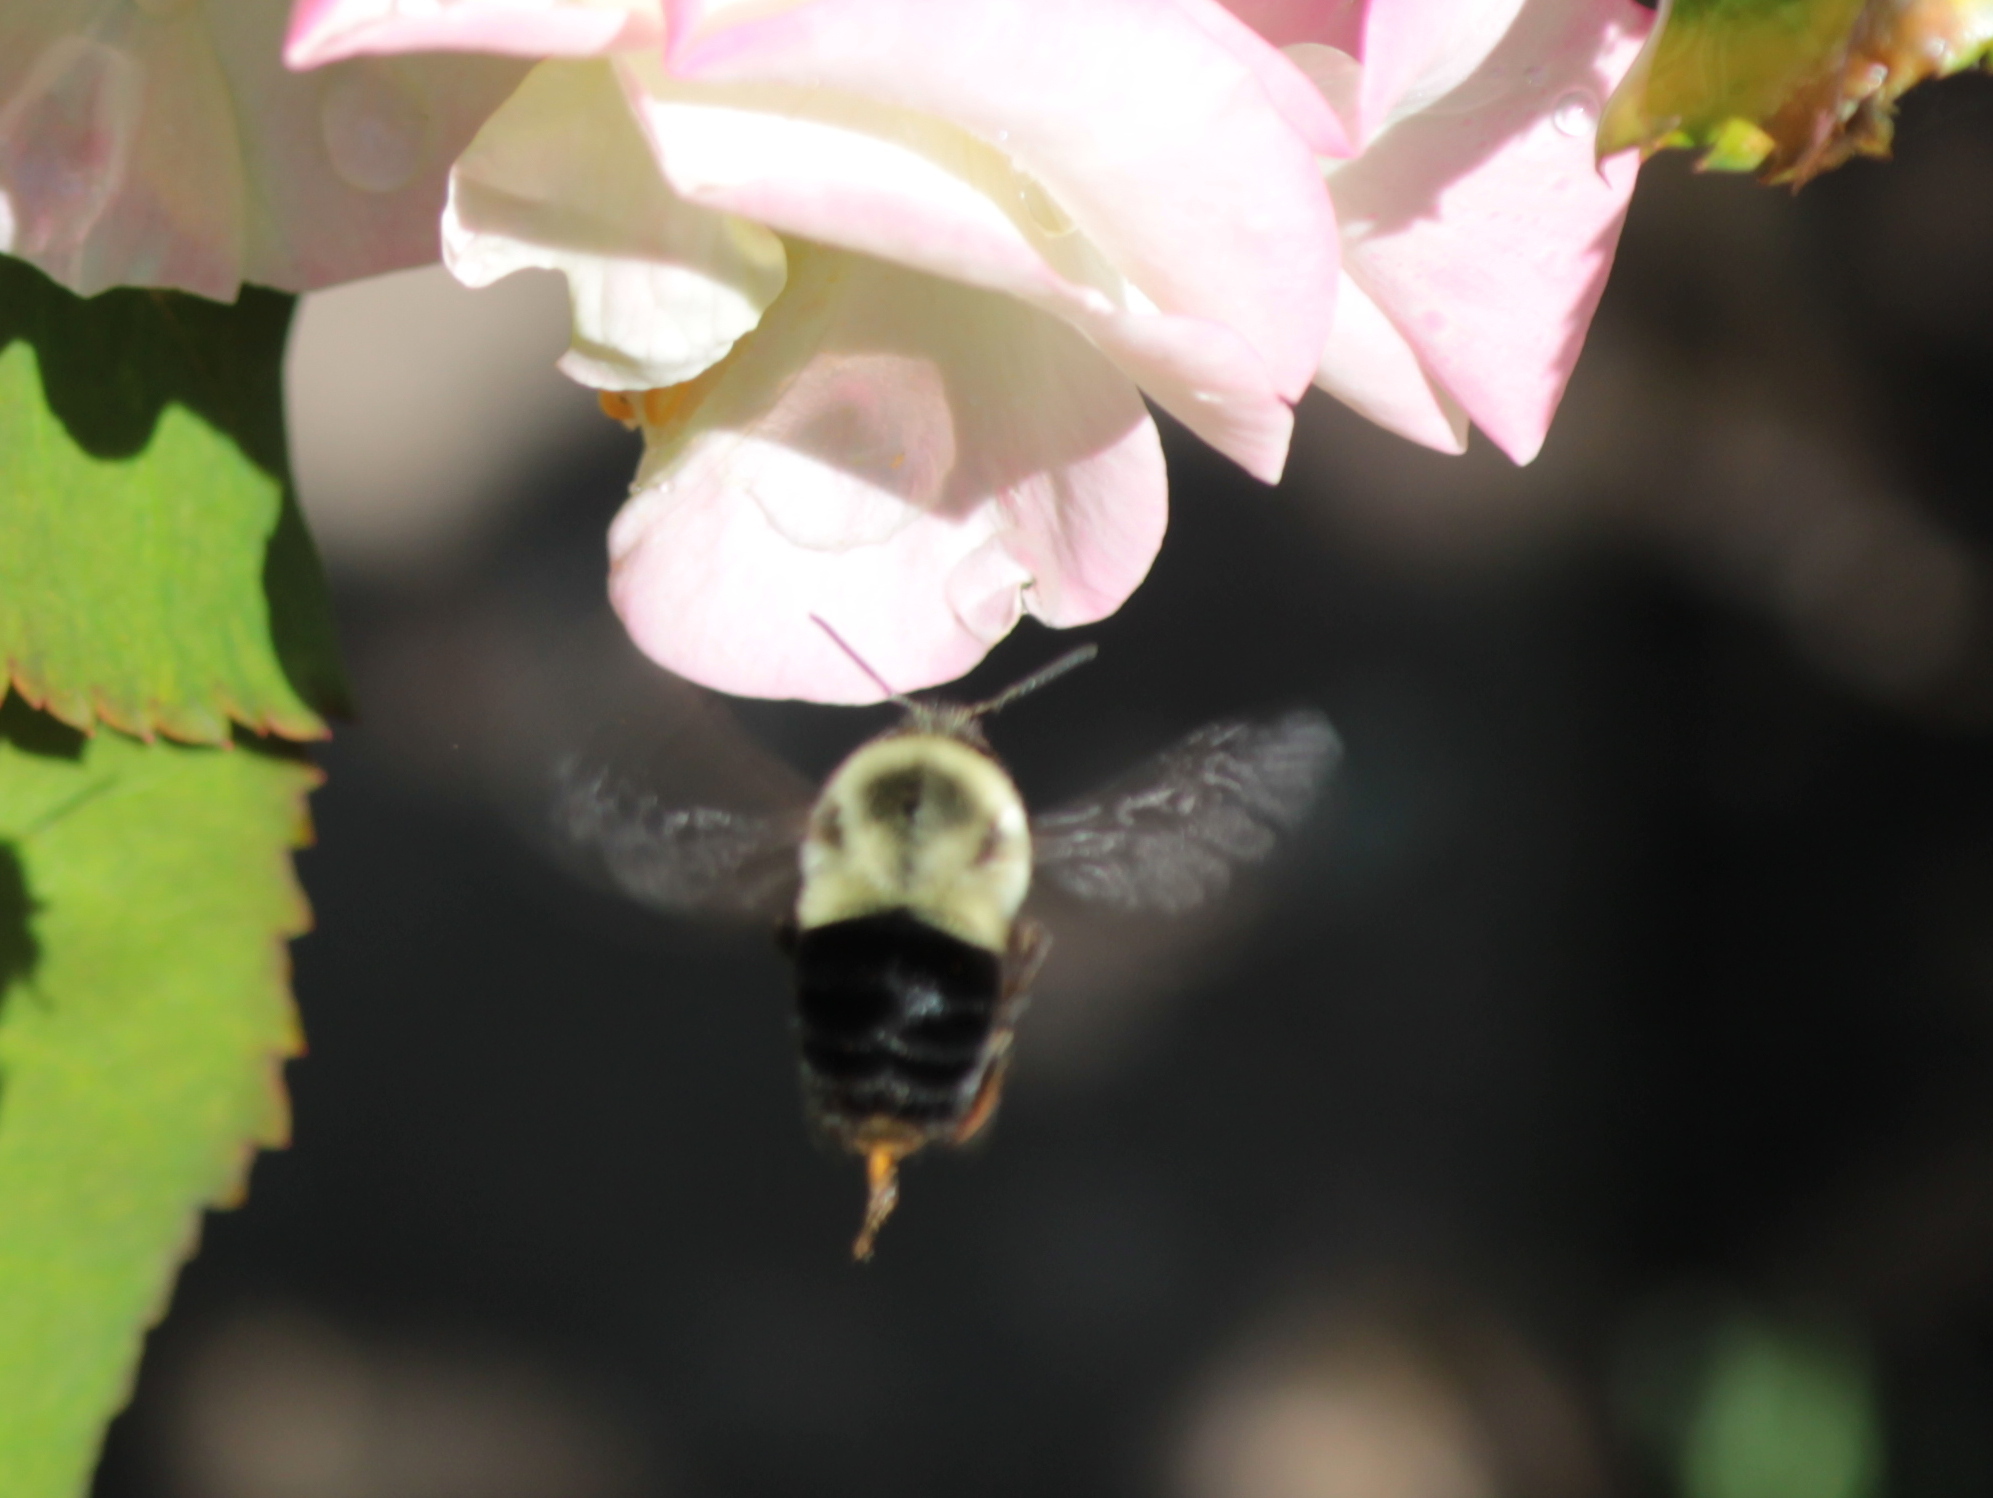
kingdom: Animalia
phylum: Arthropoda
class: Insecta
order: Hymenoptera
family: Apidae
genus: Bombus
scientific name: Bombus impatiens
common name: Common eastern bumble bee
